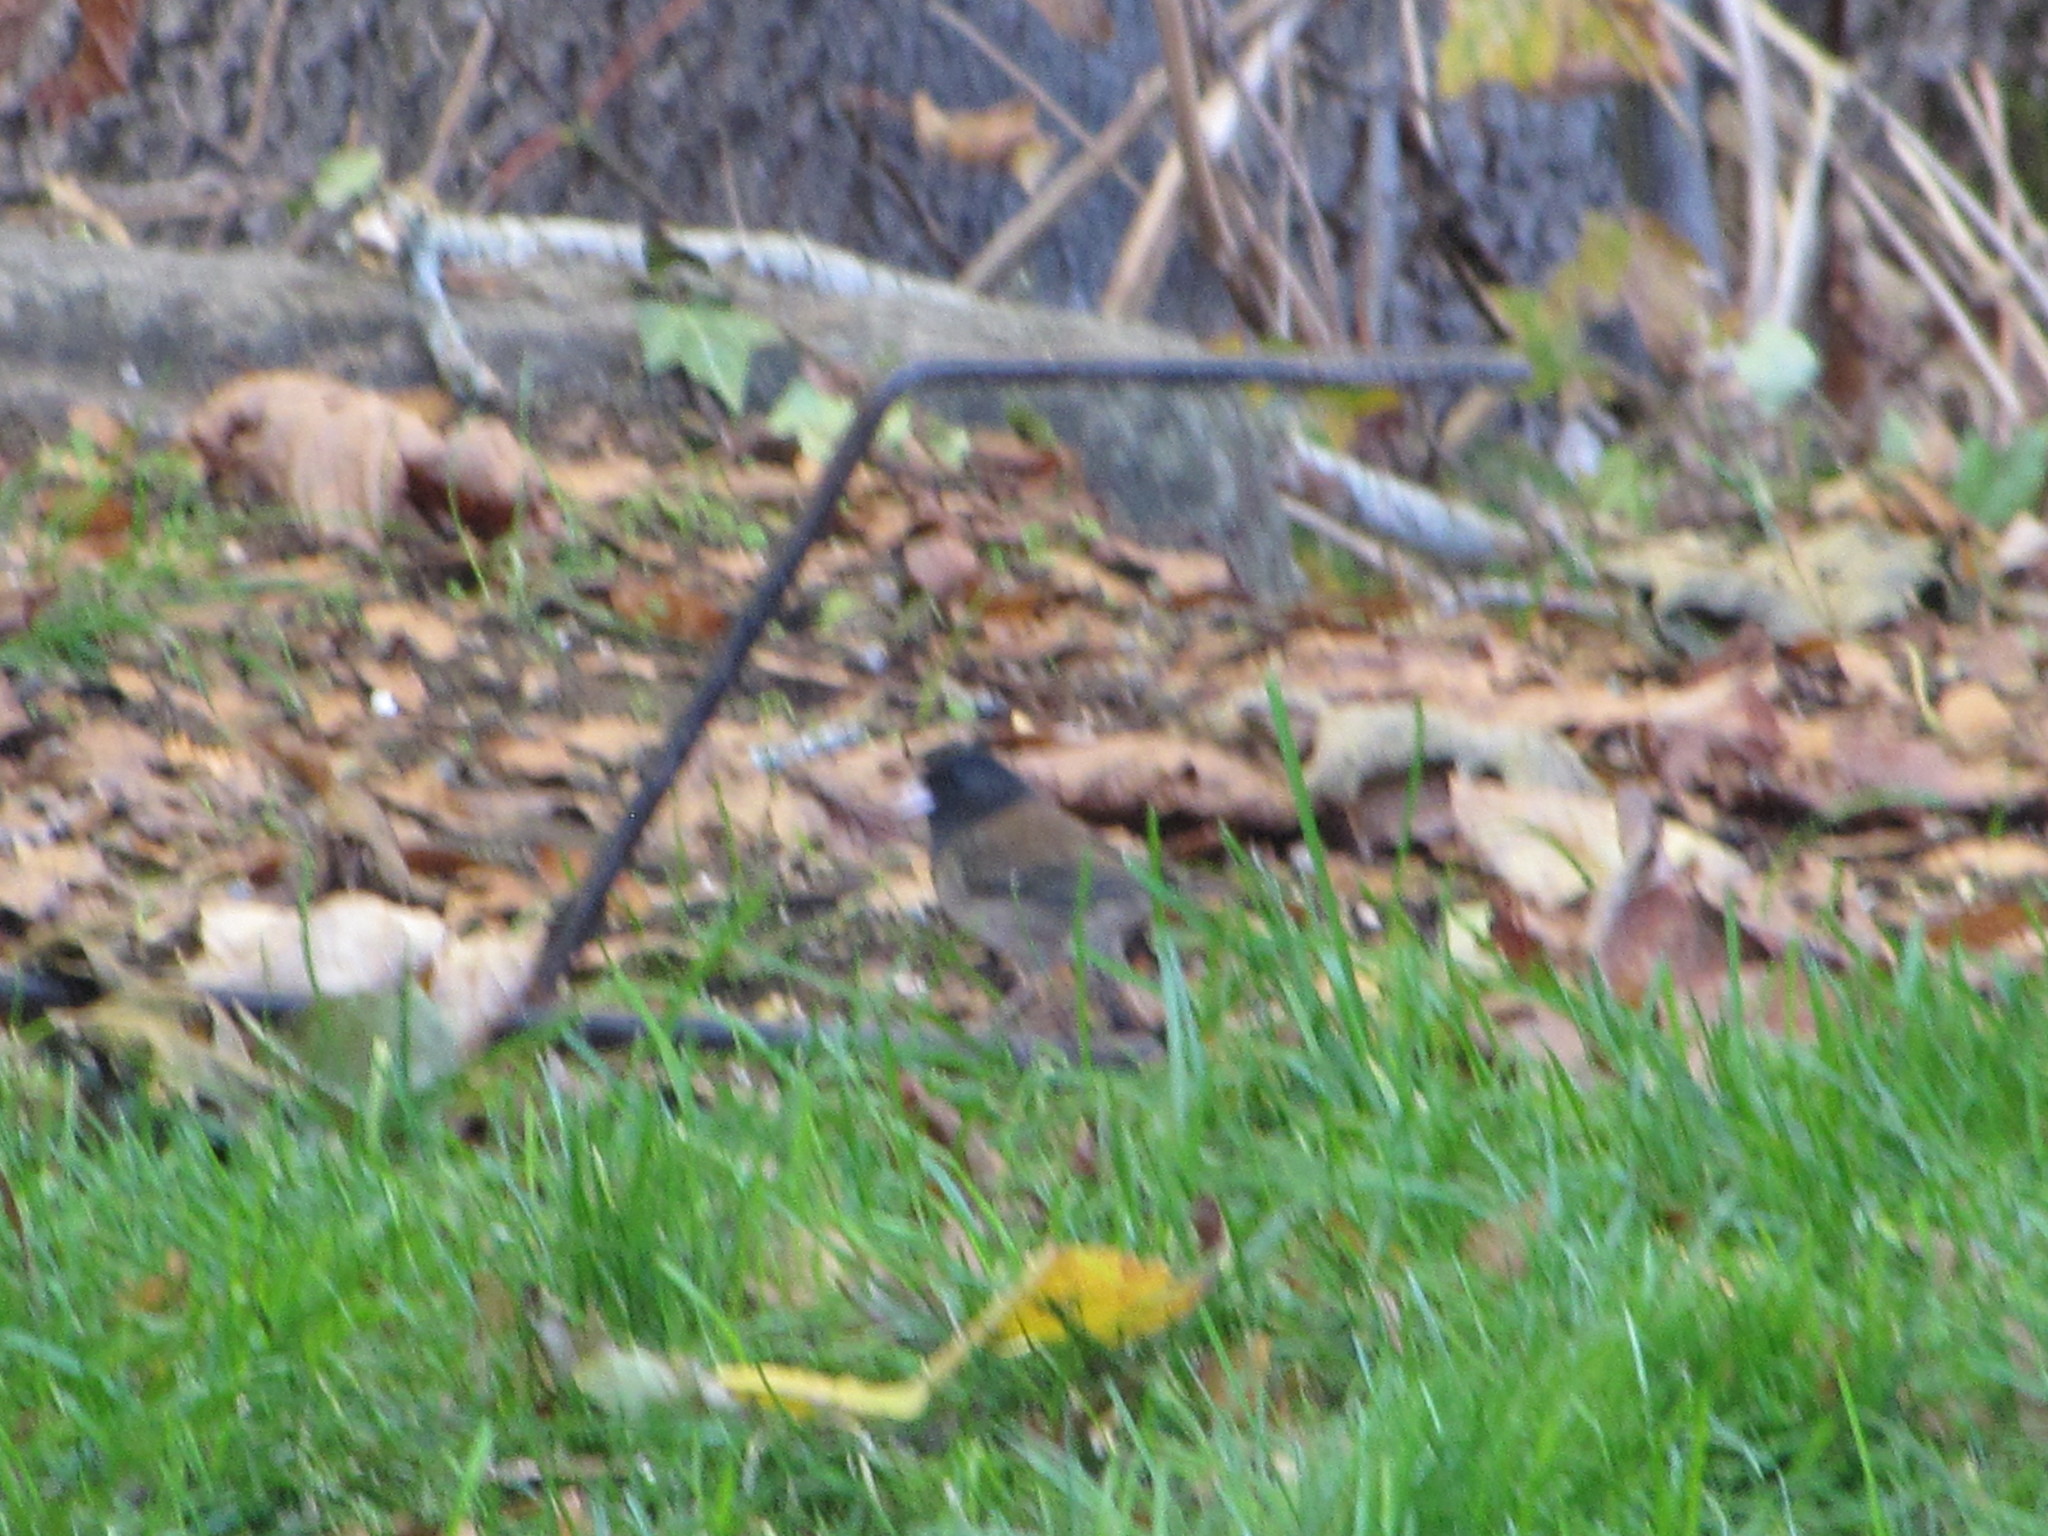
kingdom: Animalia
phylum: Chordata
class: Aves
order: Passeriformes
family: Passerellidae
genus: Junco
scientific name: Junco hyemalis
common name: Dark-eyed junco
